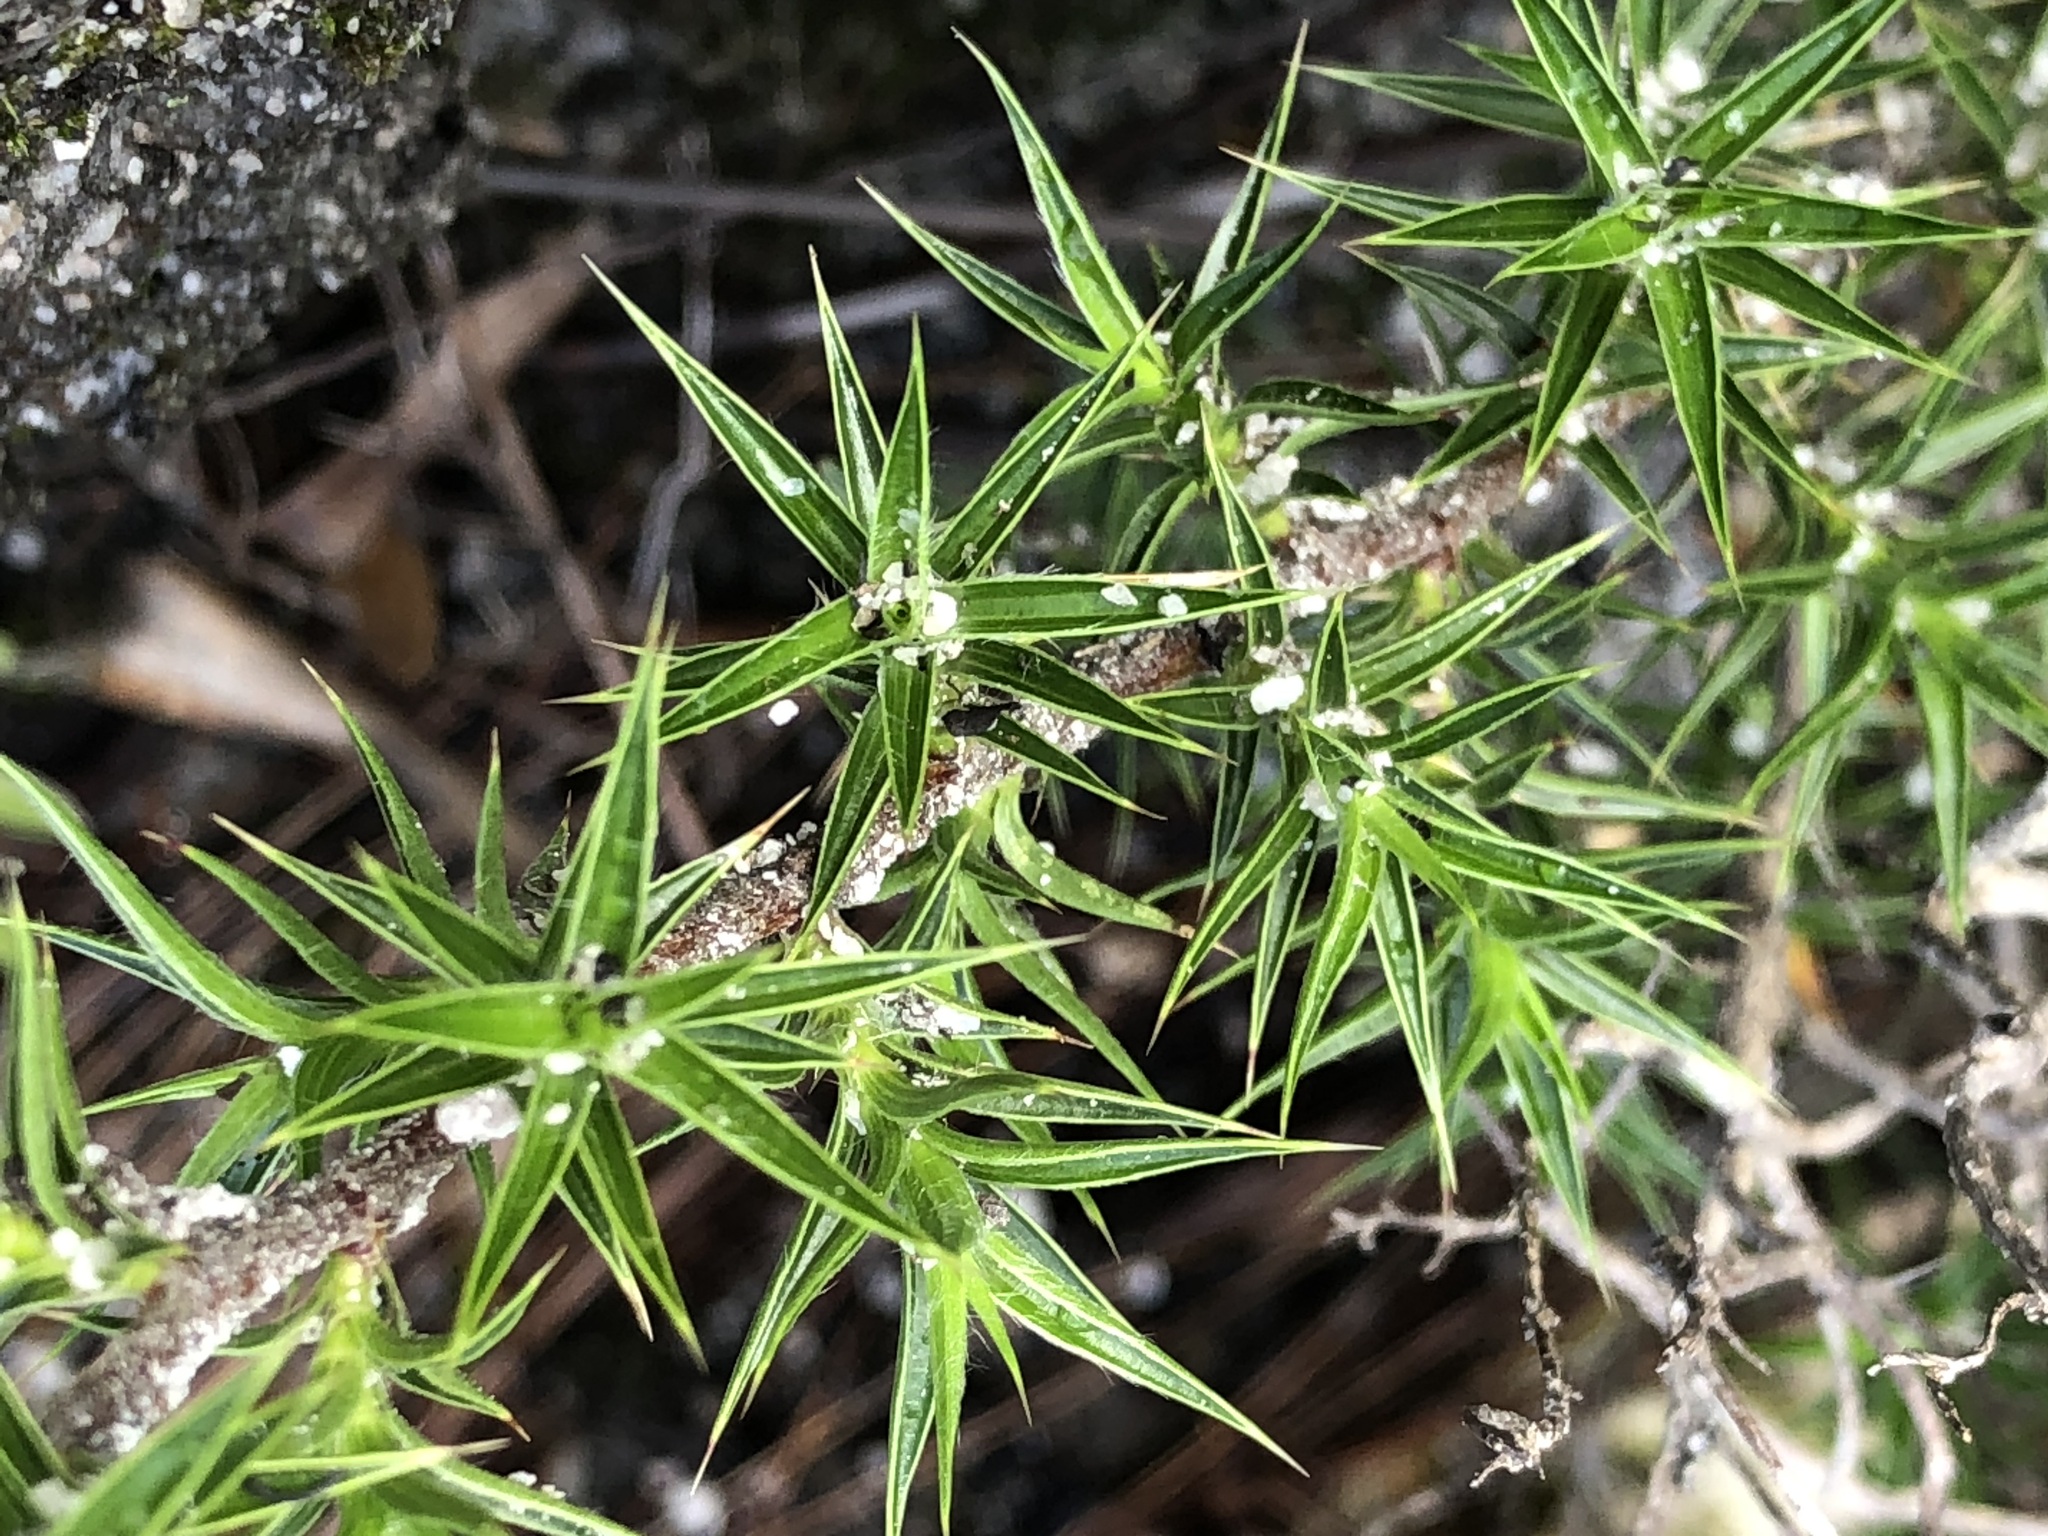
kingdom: Plantae
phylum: Tracheophyta
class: Magnoliopsida
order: Rosales
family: Rosaceae
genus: Cliffortia
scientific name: Cliffortia ruscifolia
